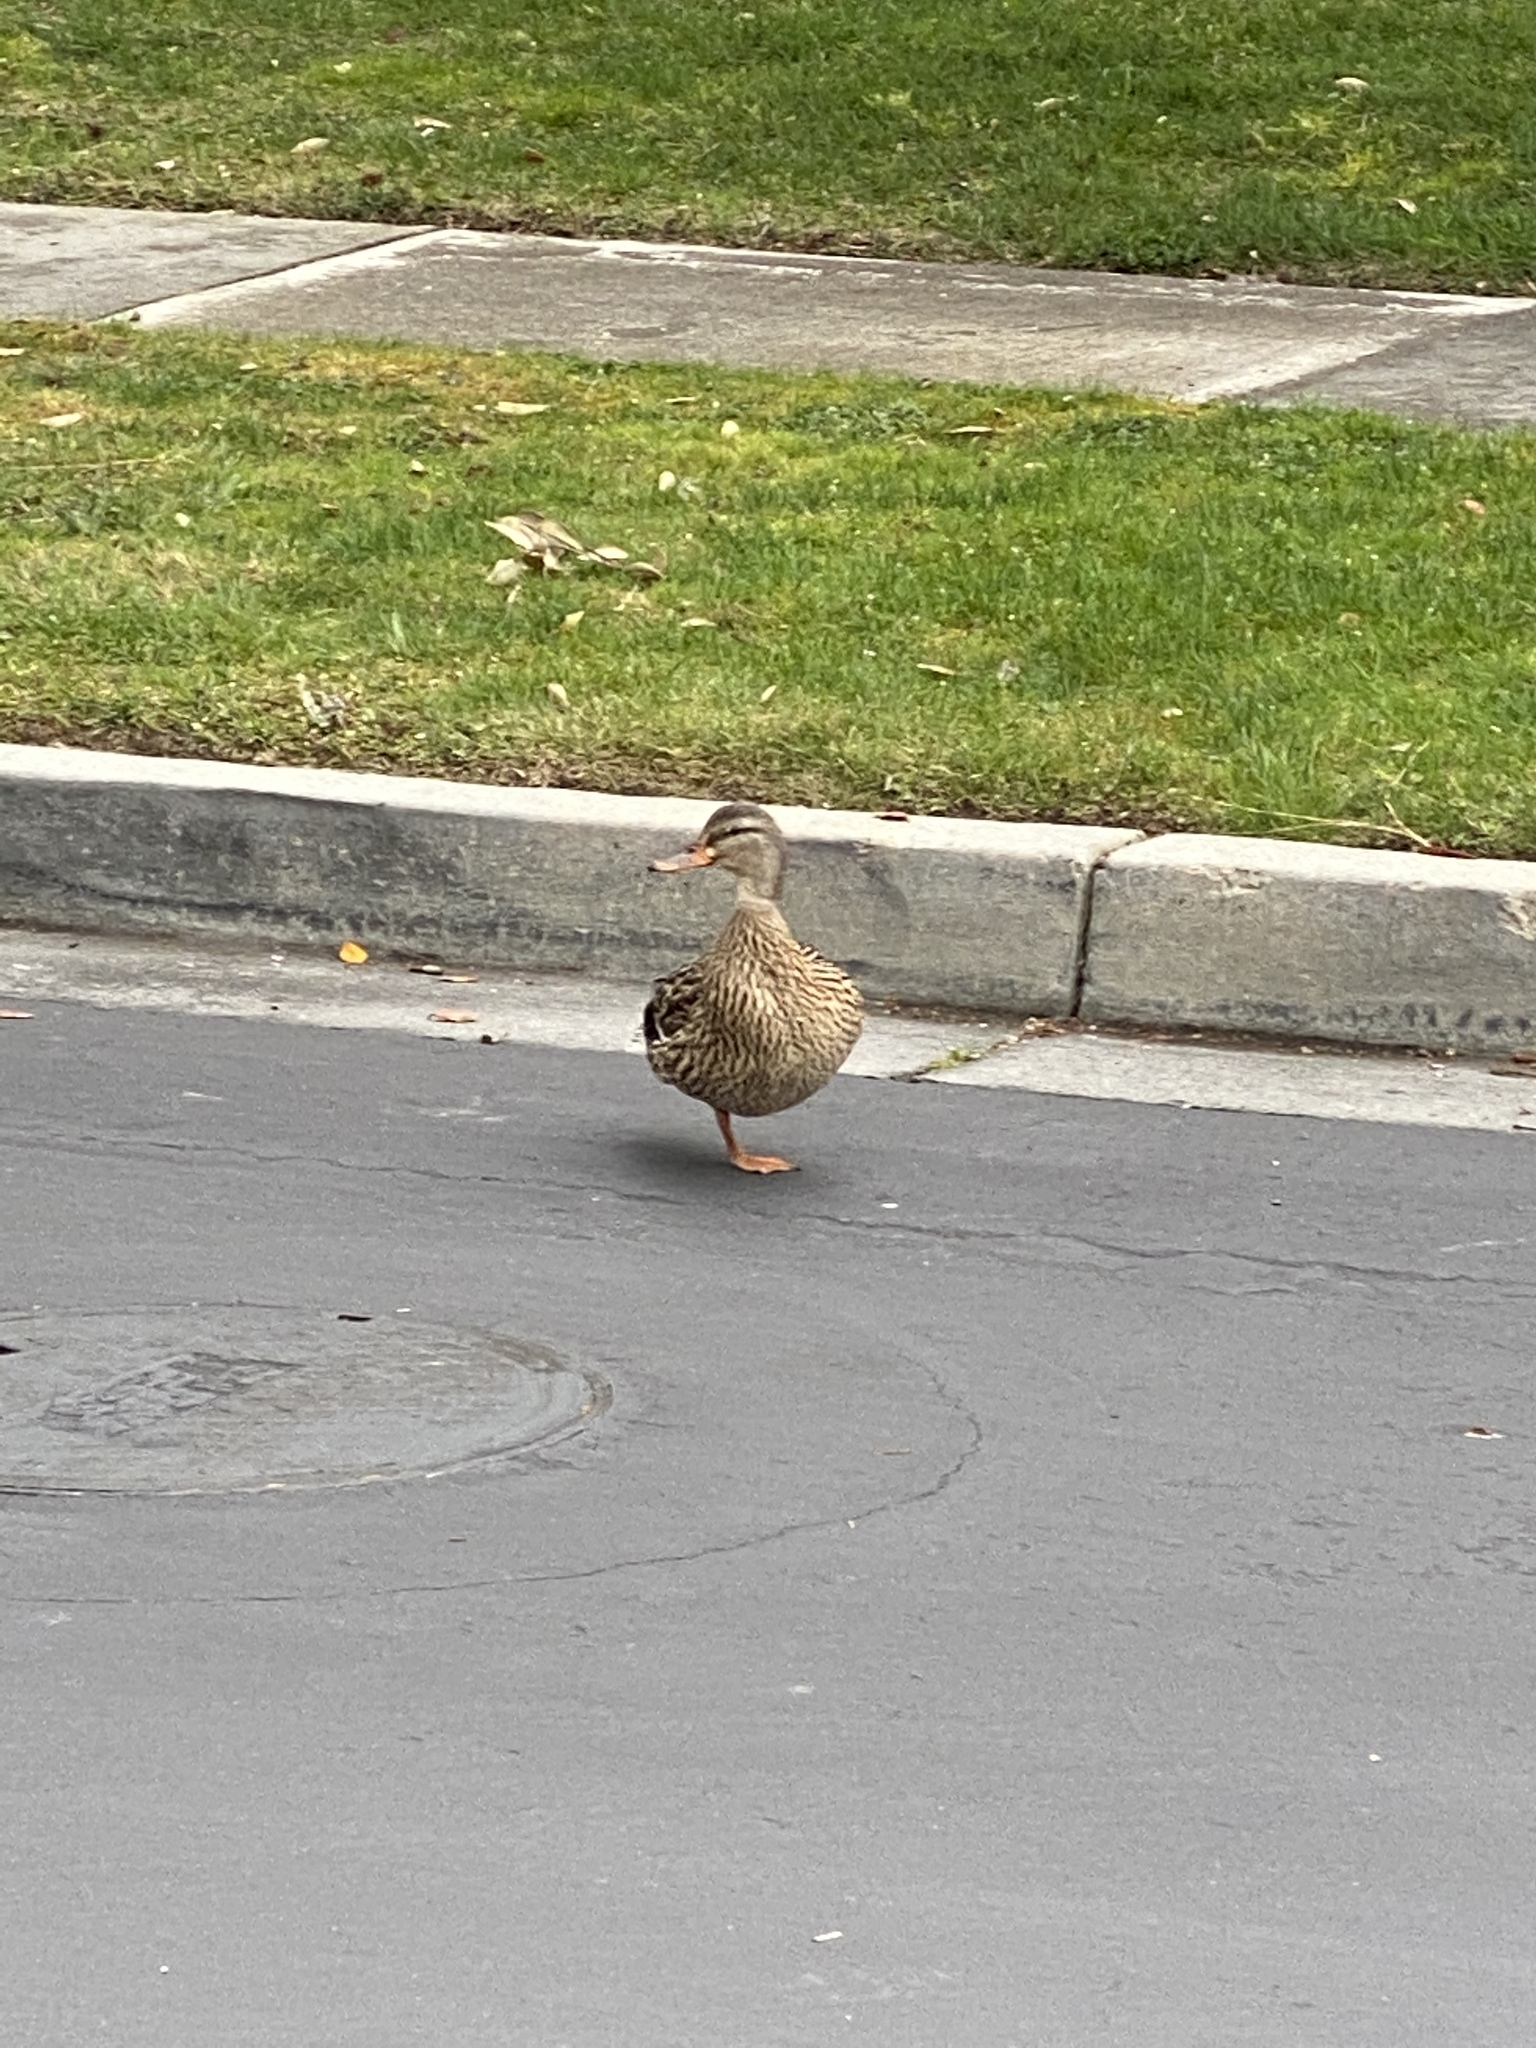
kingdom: Animalia
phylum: Chordata
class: Aves
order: Anseriformes
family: Anatidae
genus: Anas
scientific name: Anas platyrhynchos
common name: Mallard
